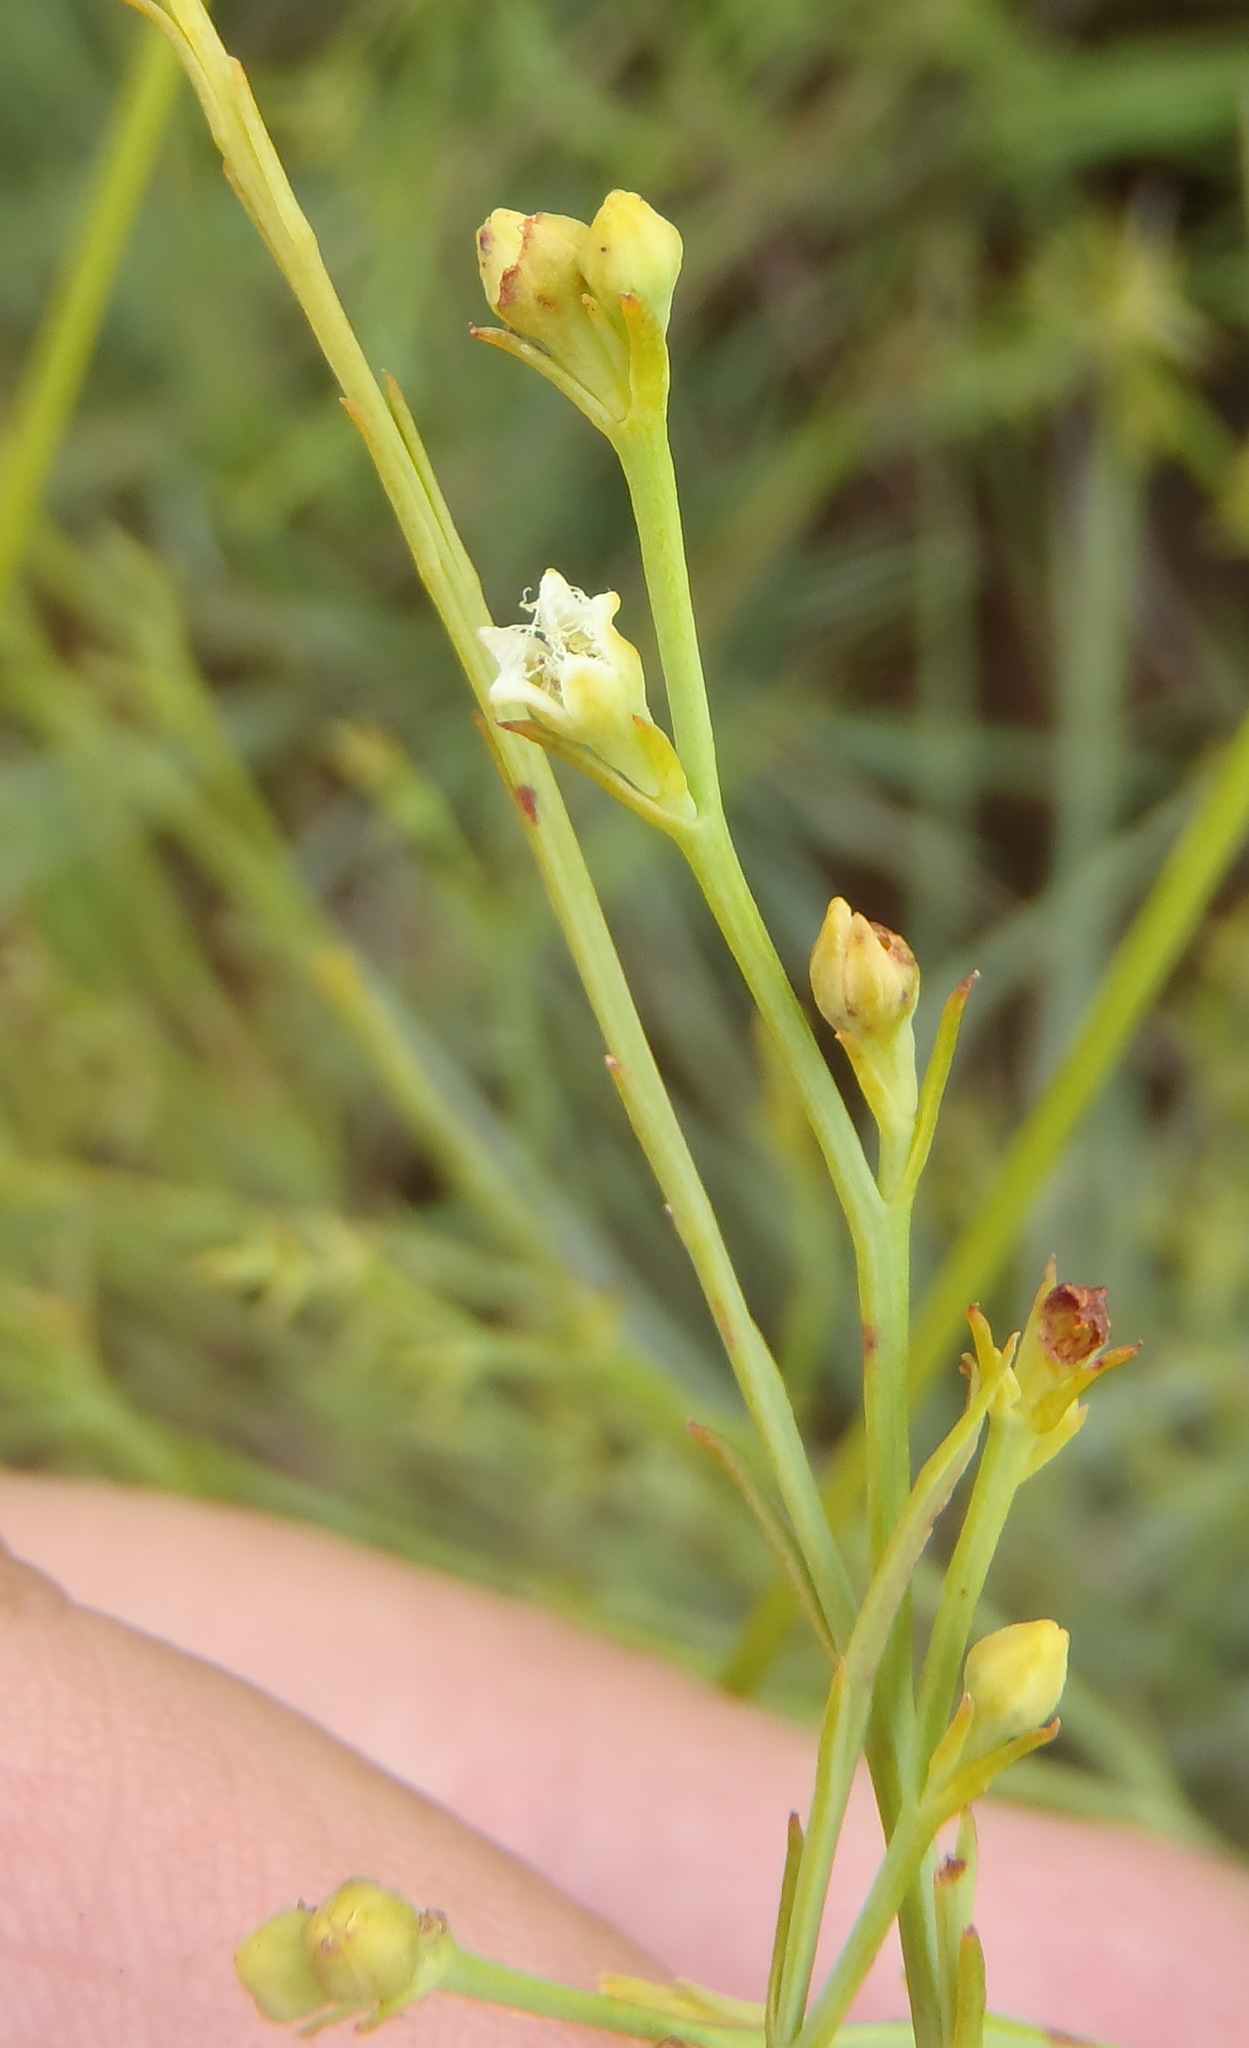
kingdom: Plantae
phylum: Tracheophyta
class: Magnoliopsida
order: Santalales
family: Thesiaceae
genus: Thesium
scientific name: Thesium utile
